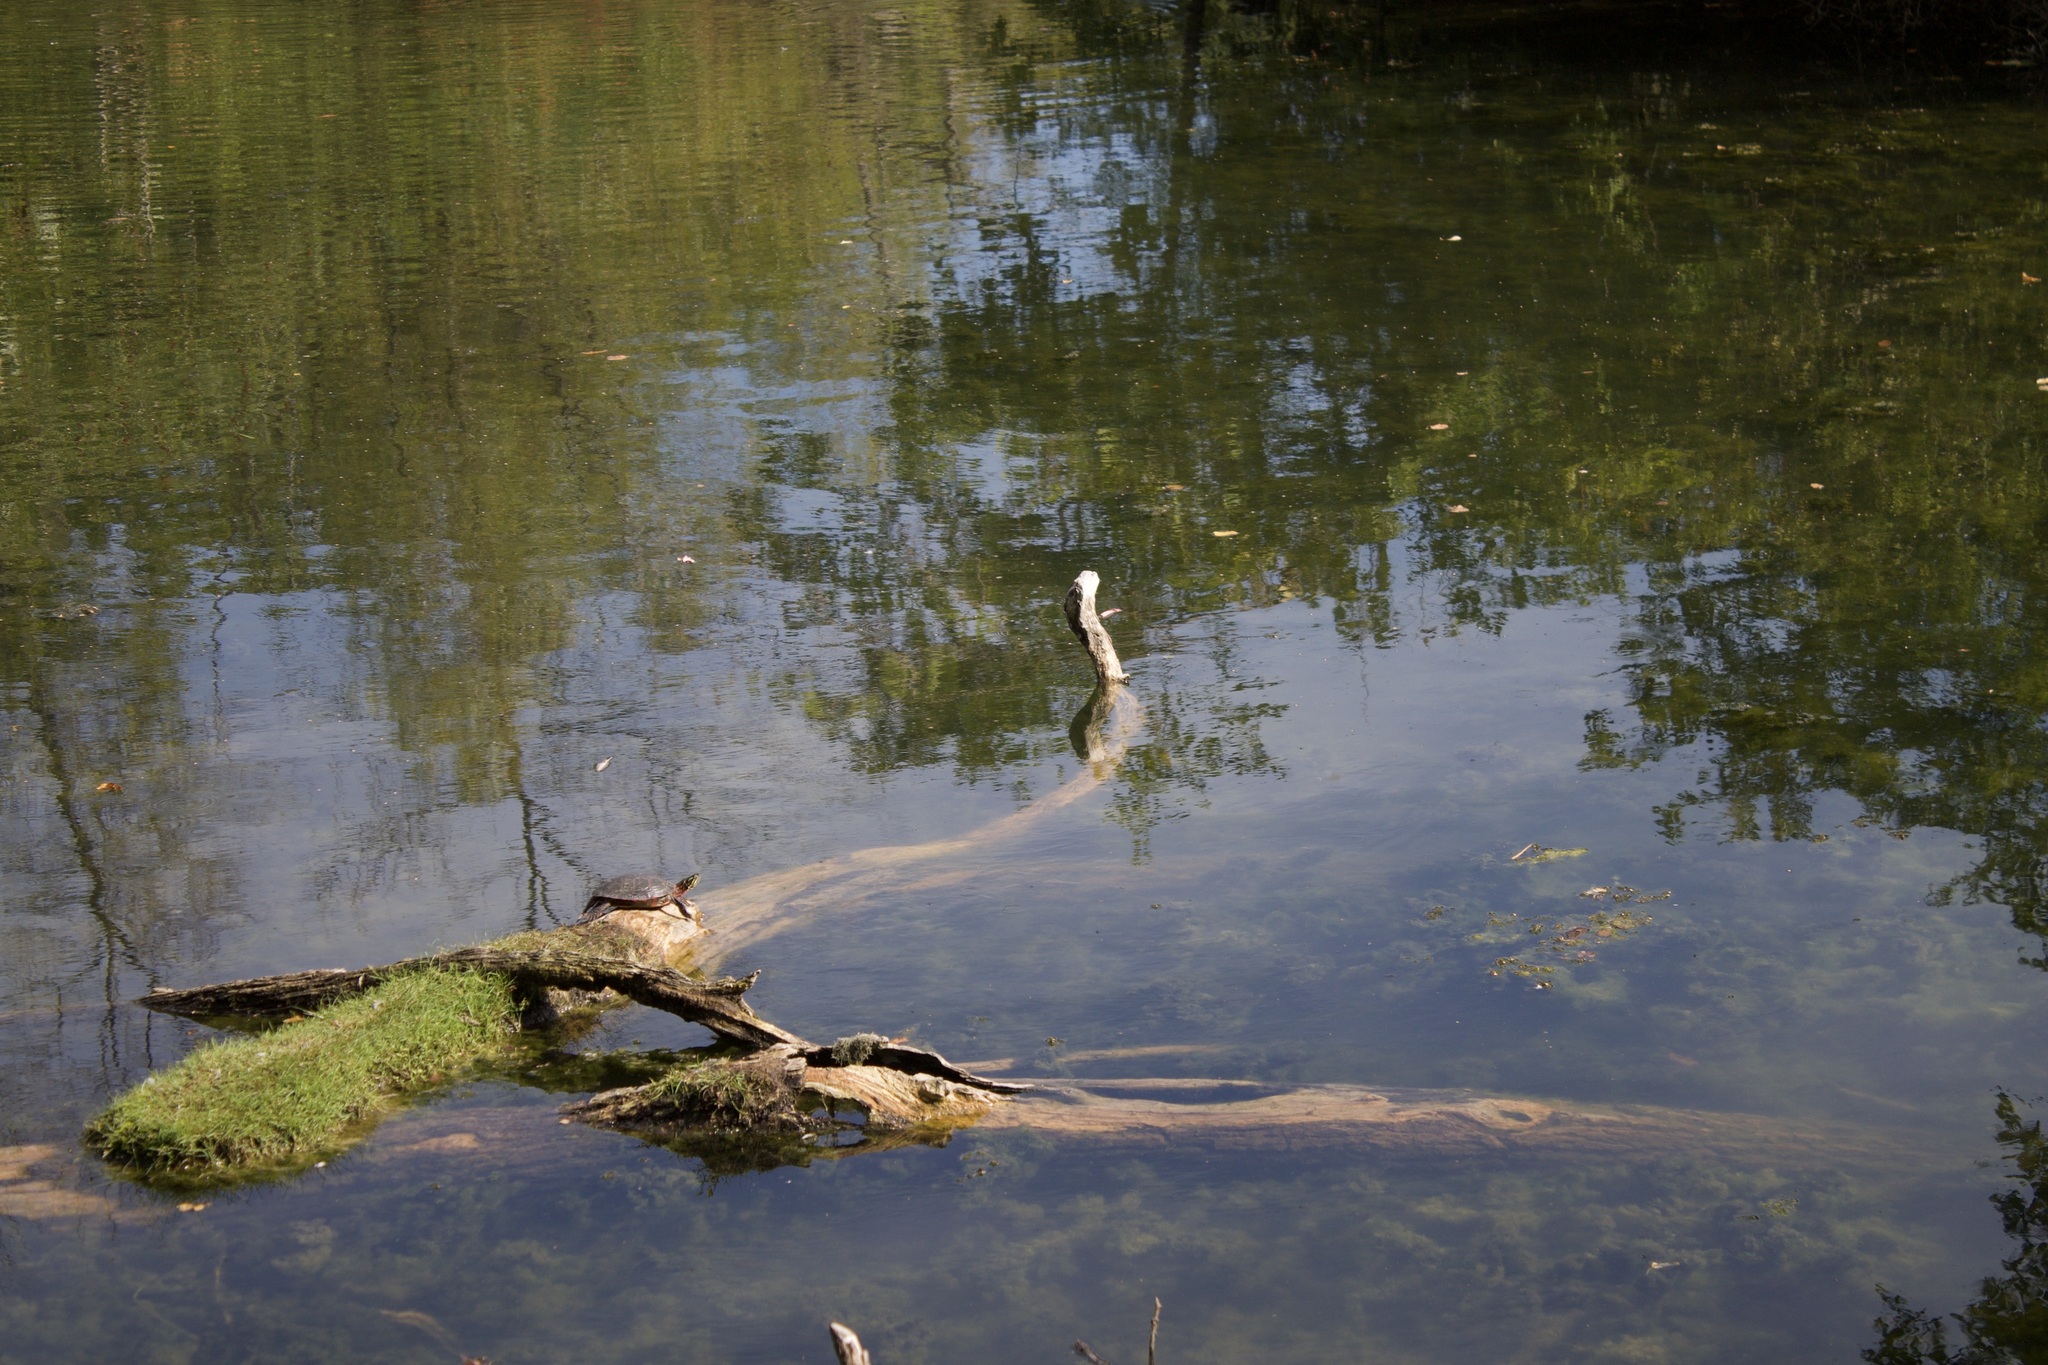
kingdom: Animalia
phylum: Chordata
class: Testudines
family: Emydidae
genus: Chrysemys
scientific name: Chrysemys picta
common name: Painted turtle
